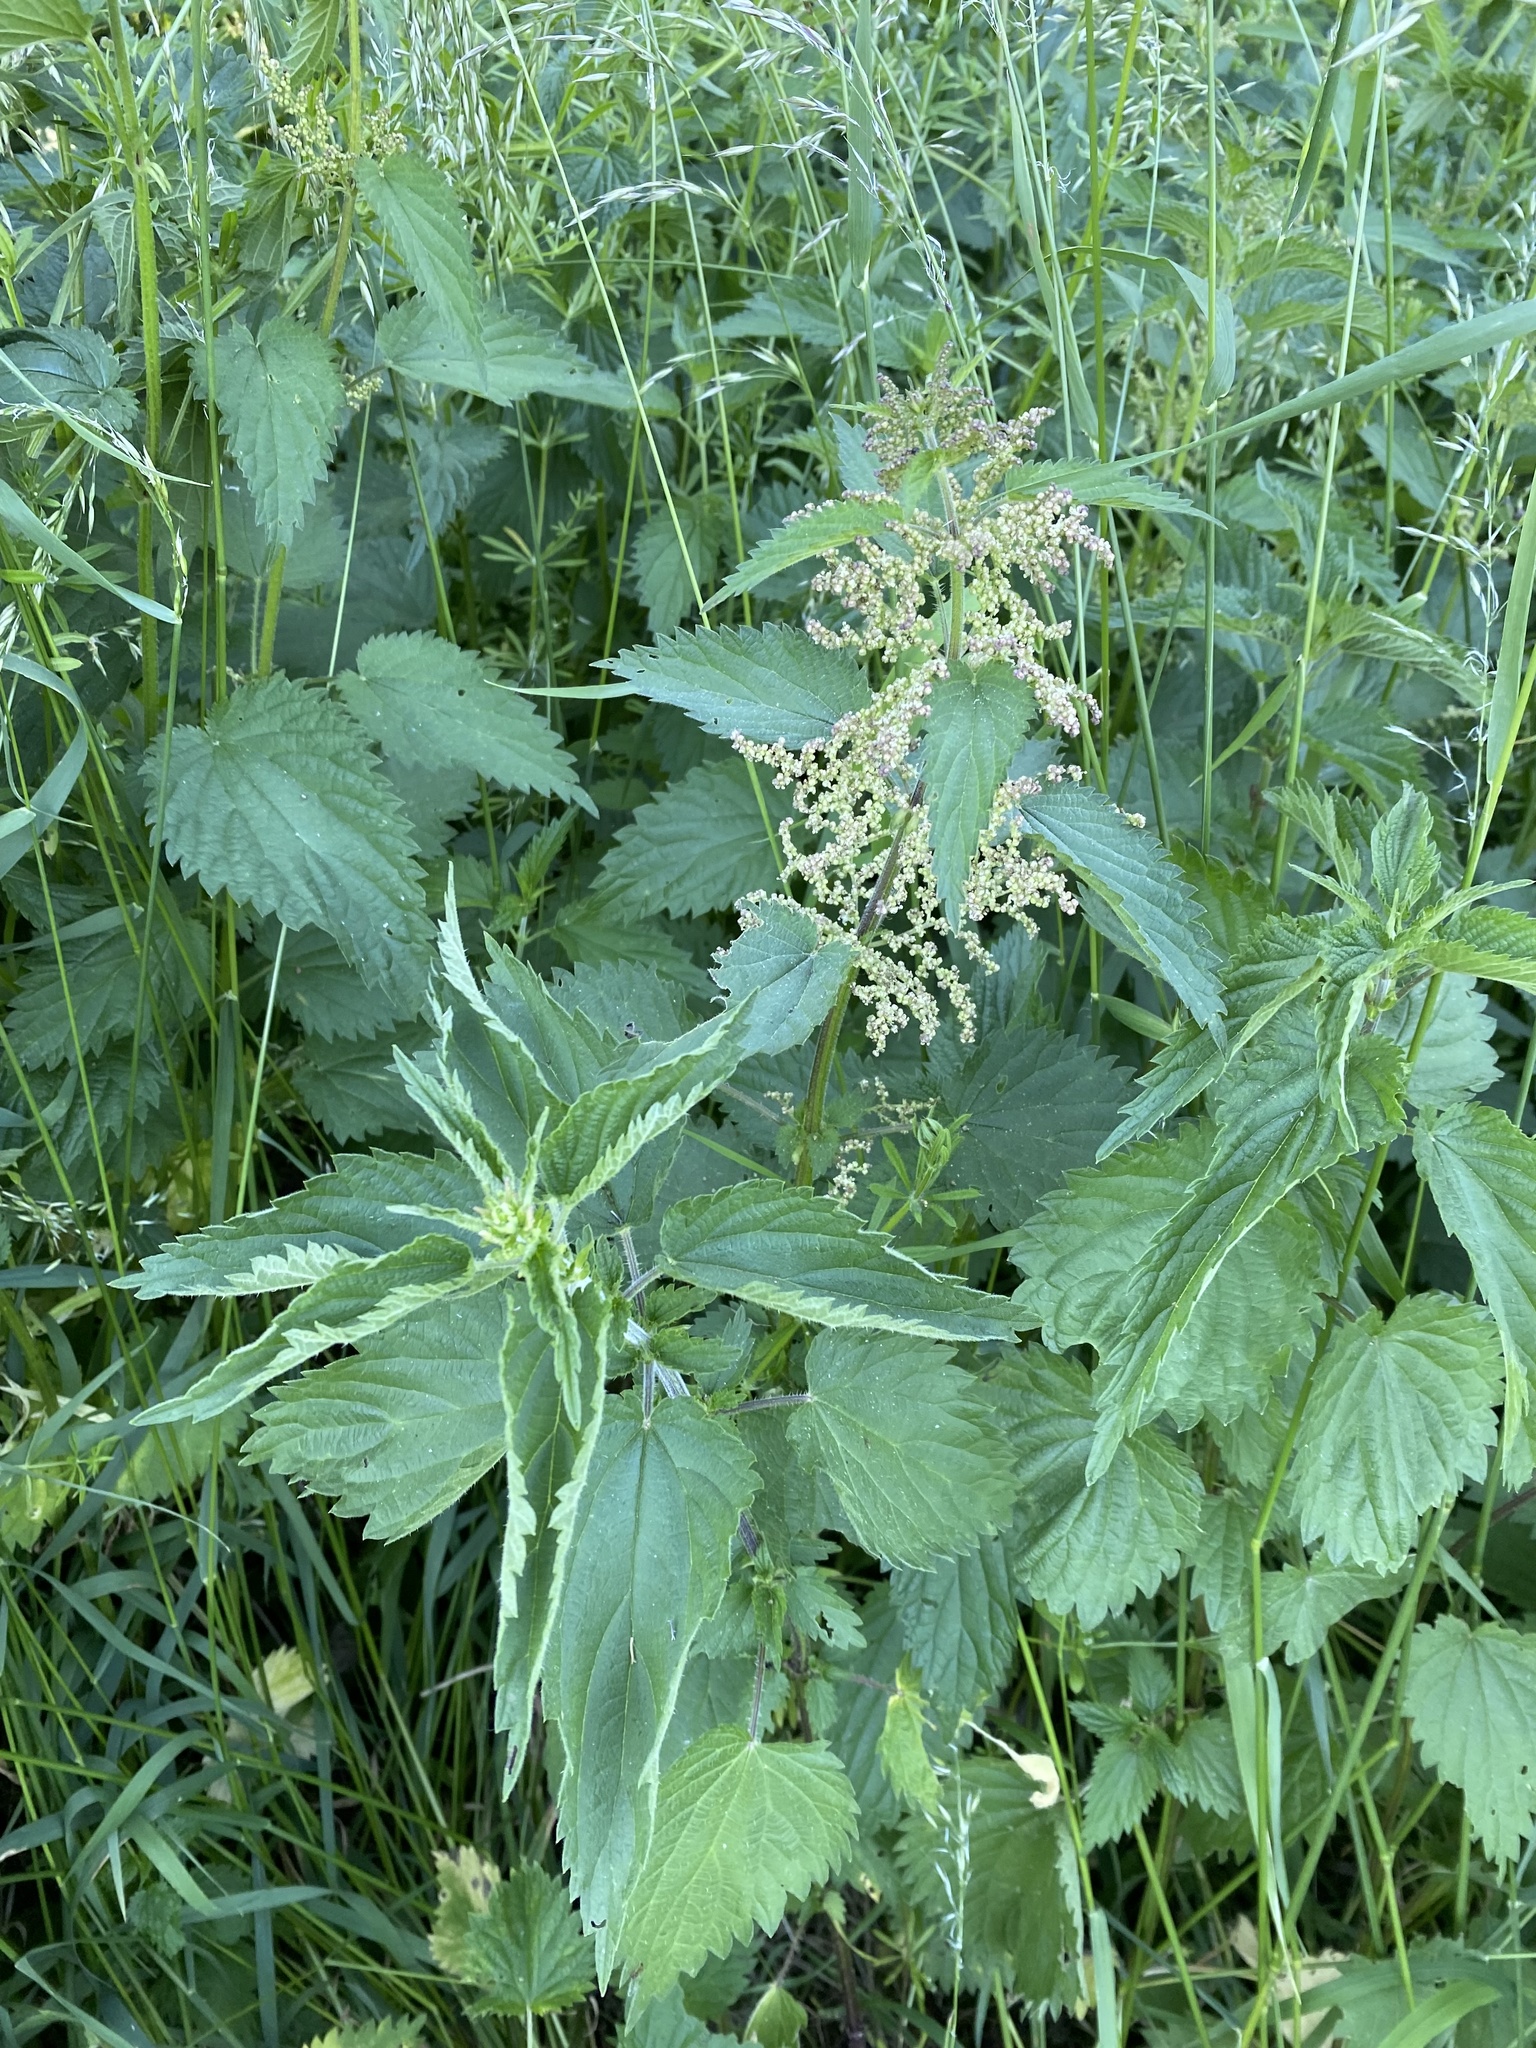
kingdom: Plantae
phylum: Tracheophyta
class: Magnoliopsida
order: Rosales
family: Urticaceae
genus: Urtica
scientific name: Urtica dioica
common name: Common nettle
